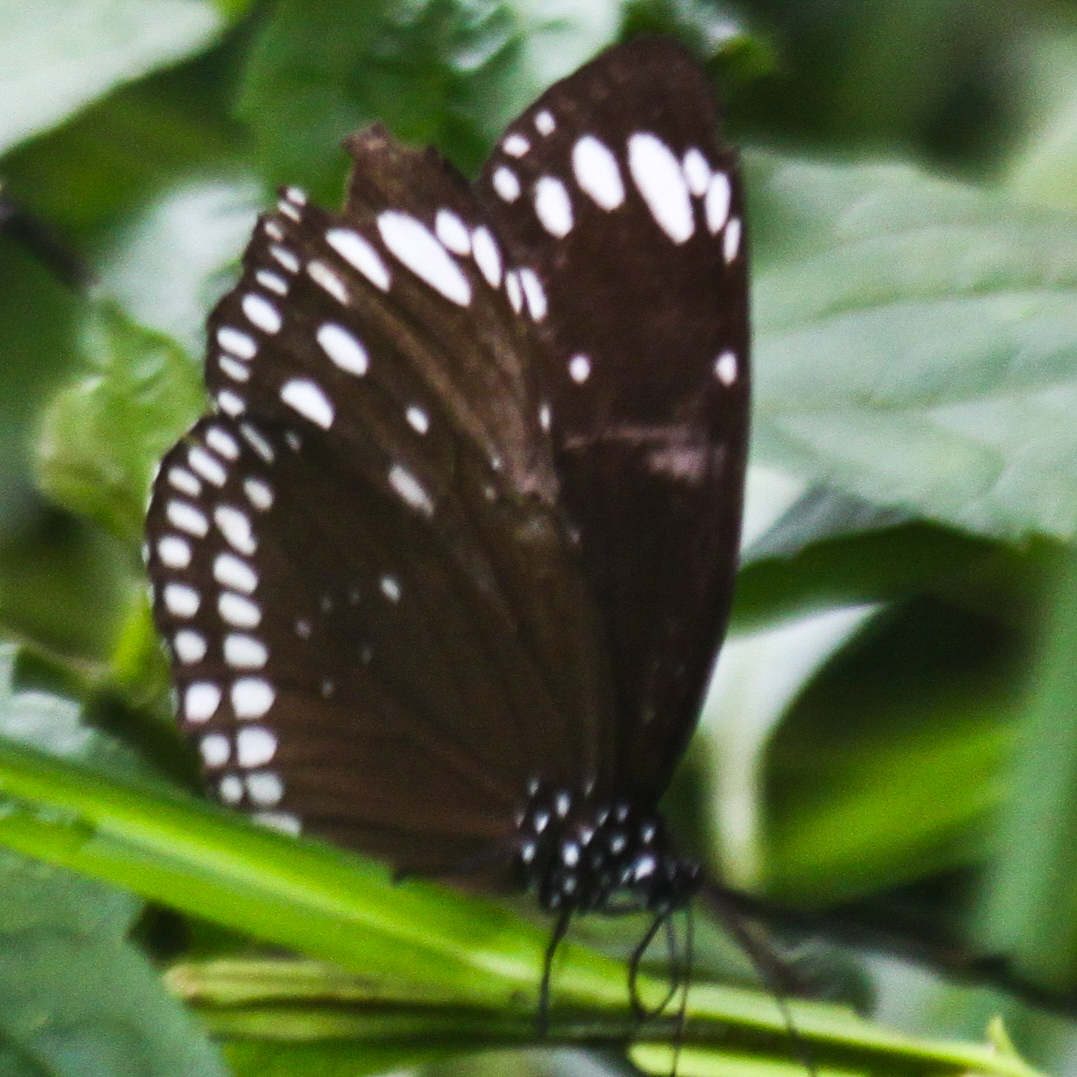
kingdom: Animalia
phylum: Arthropoda
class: Insecta
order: Lepidoptera
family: Nymphalidae
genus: Euploea
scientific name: Euploea crameri
